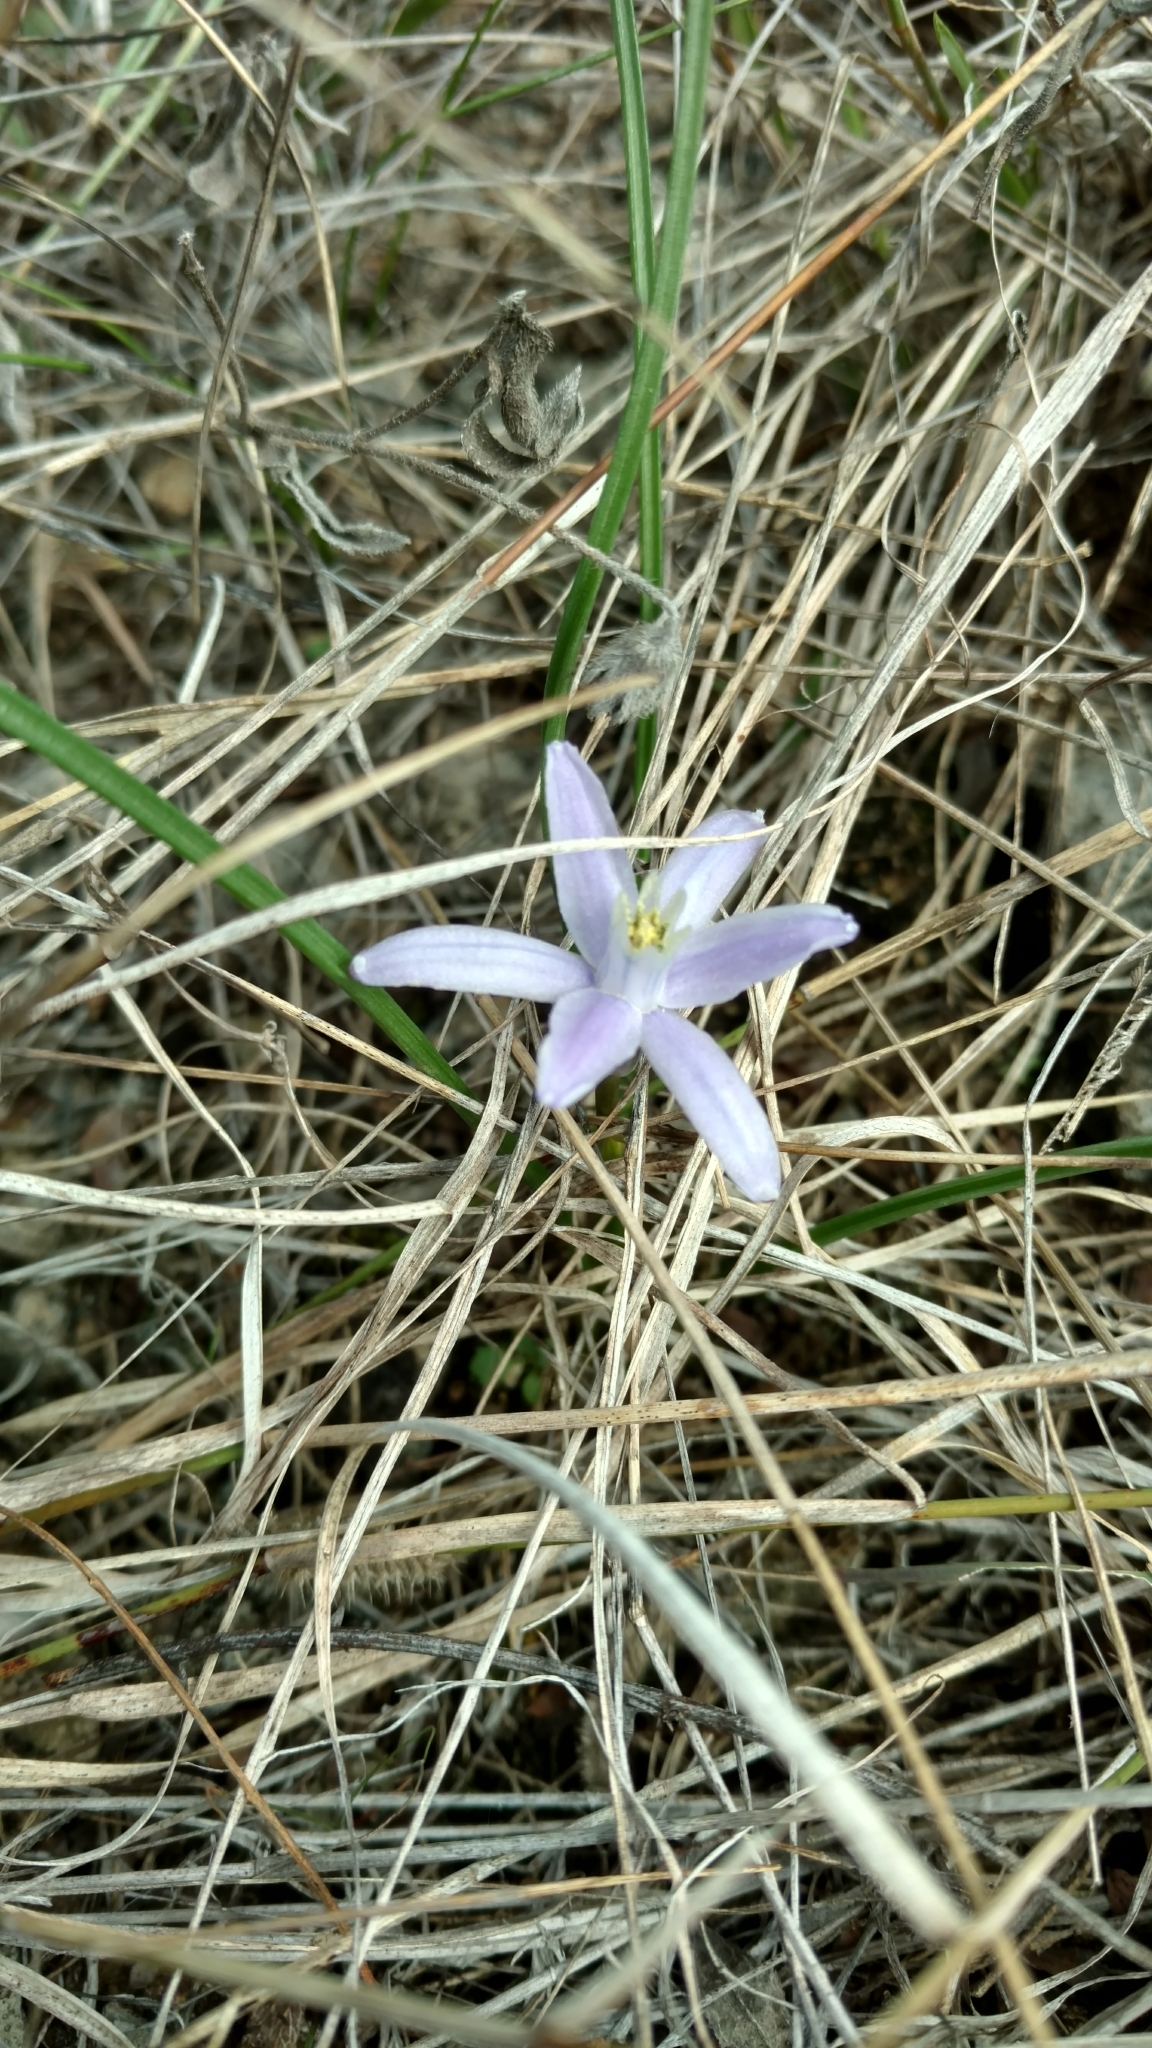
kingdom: Plantae
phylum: Tracheophyta
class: Liliopsida
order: Asparagales
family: Asparagaceae
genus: Androstephium
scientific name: Androstephium coeruleum
